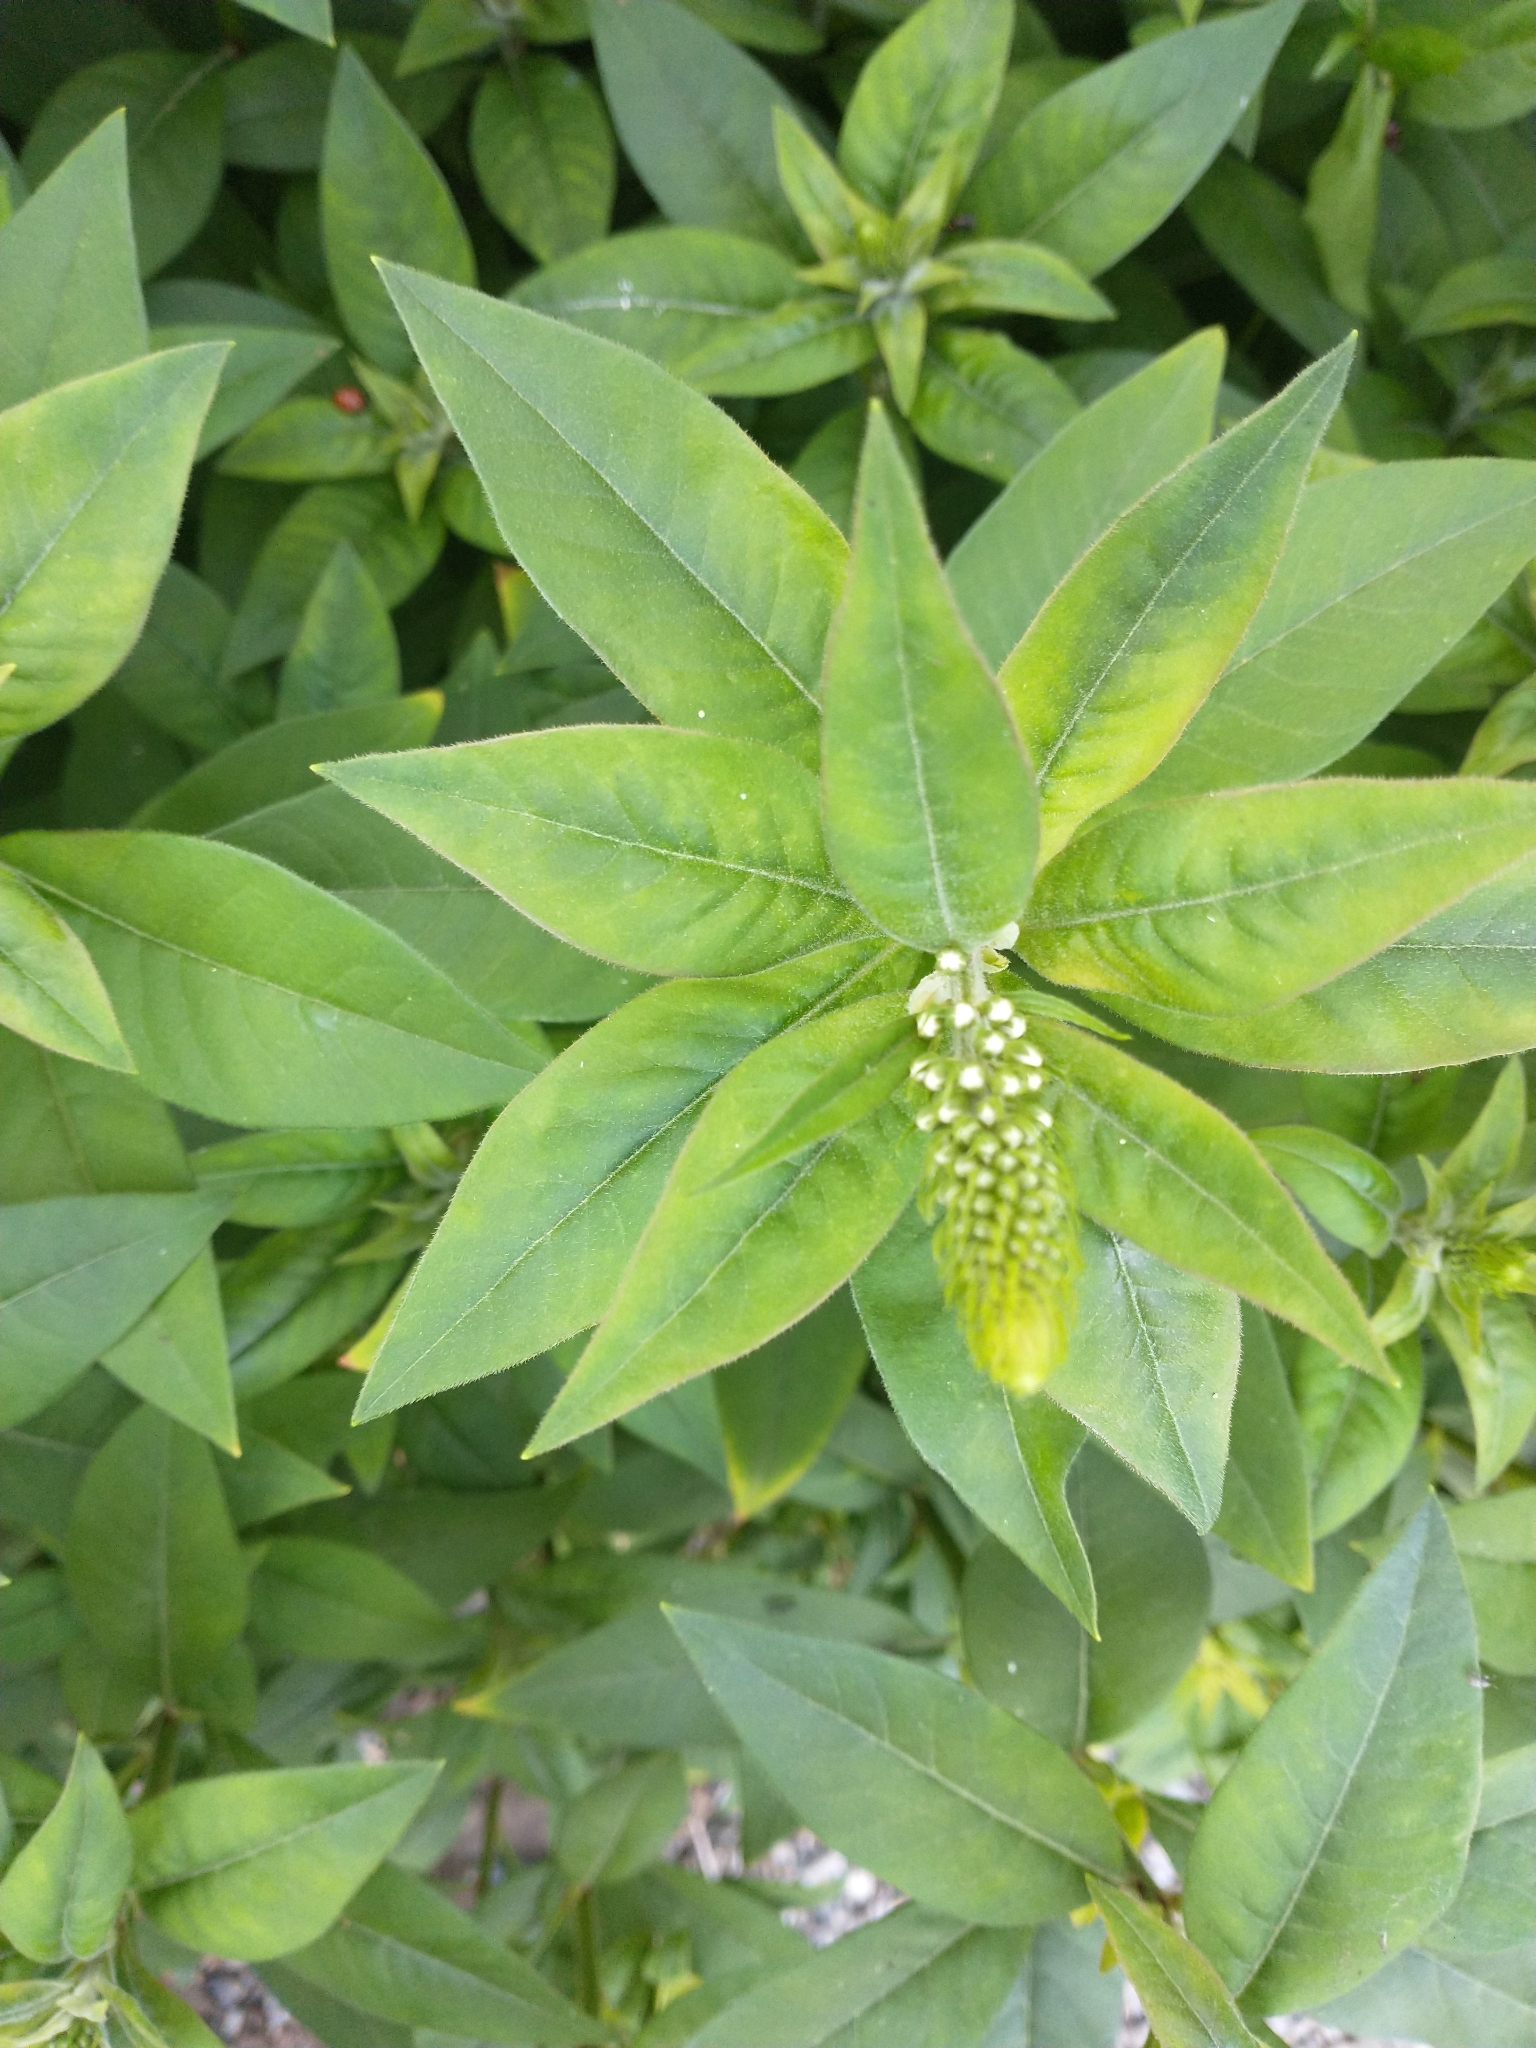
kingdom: Plantae
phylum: Tracheophyta
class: Magnoliopsida
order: Ericales
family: Primulaceae
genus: Lysimachia
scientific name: Lysimachia clethroides
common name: Gooseneck loosestrife
